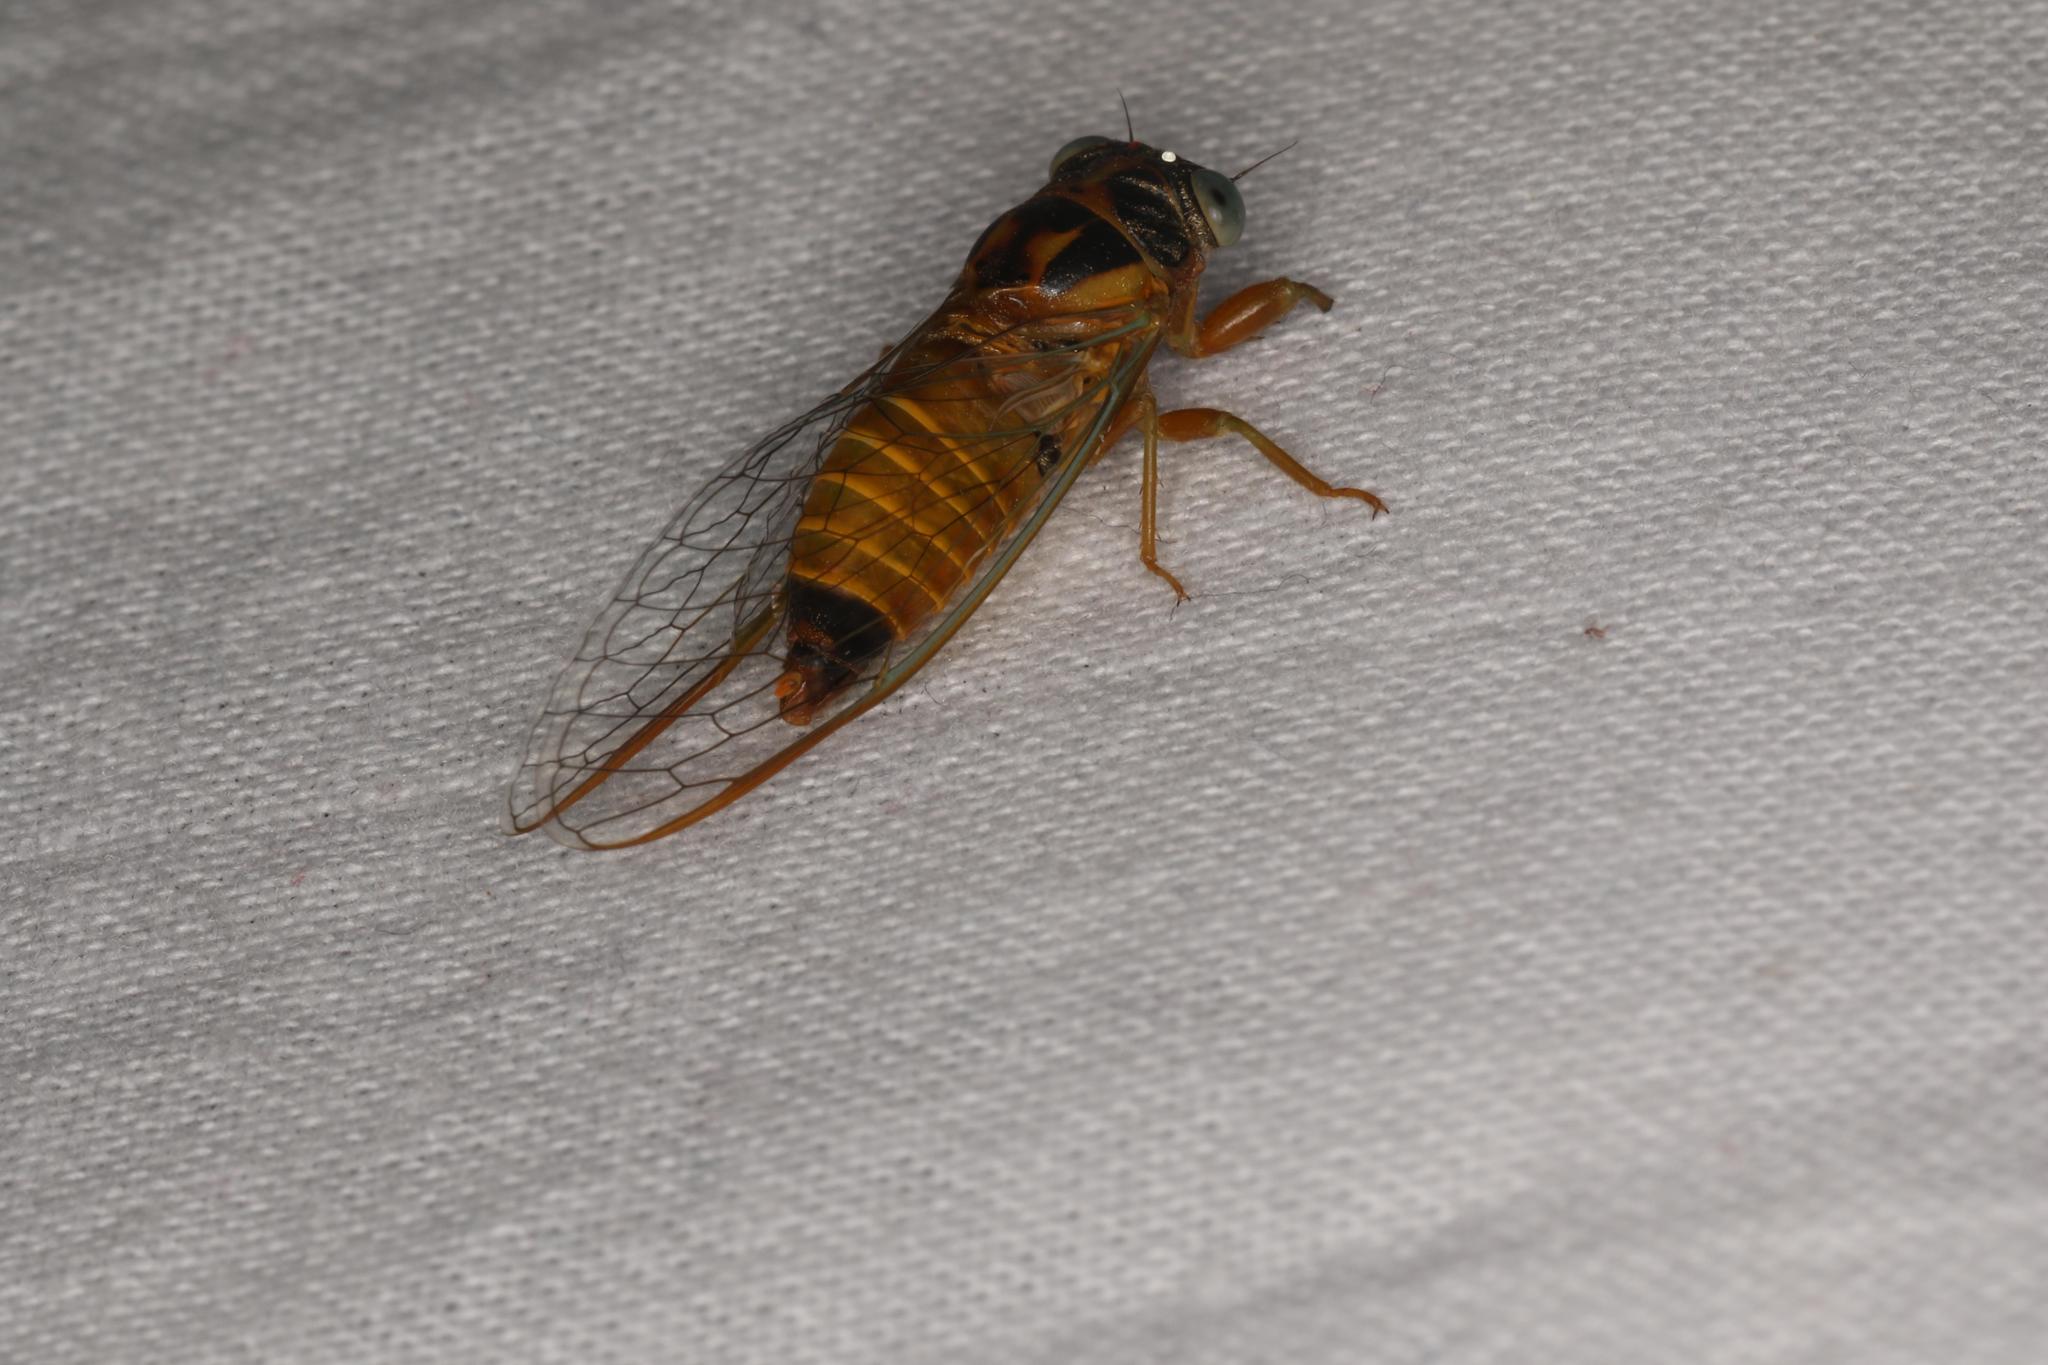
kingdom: Animalia
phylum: Arthropoda
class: Insecta
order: Hemiptera
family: Cicadidae
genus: Palapsalta
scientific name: Palapsalta eyrei
